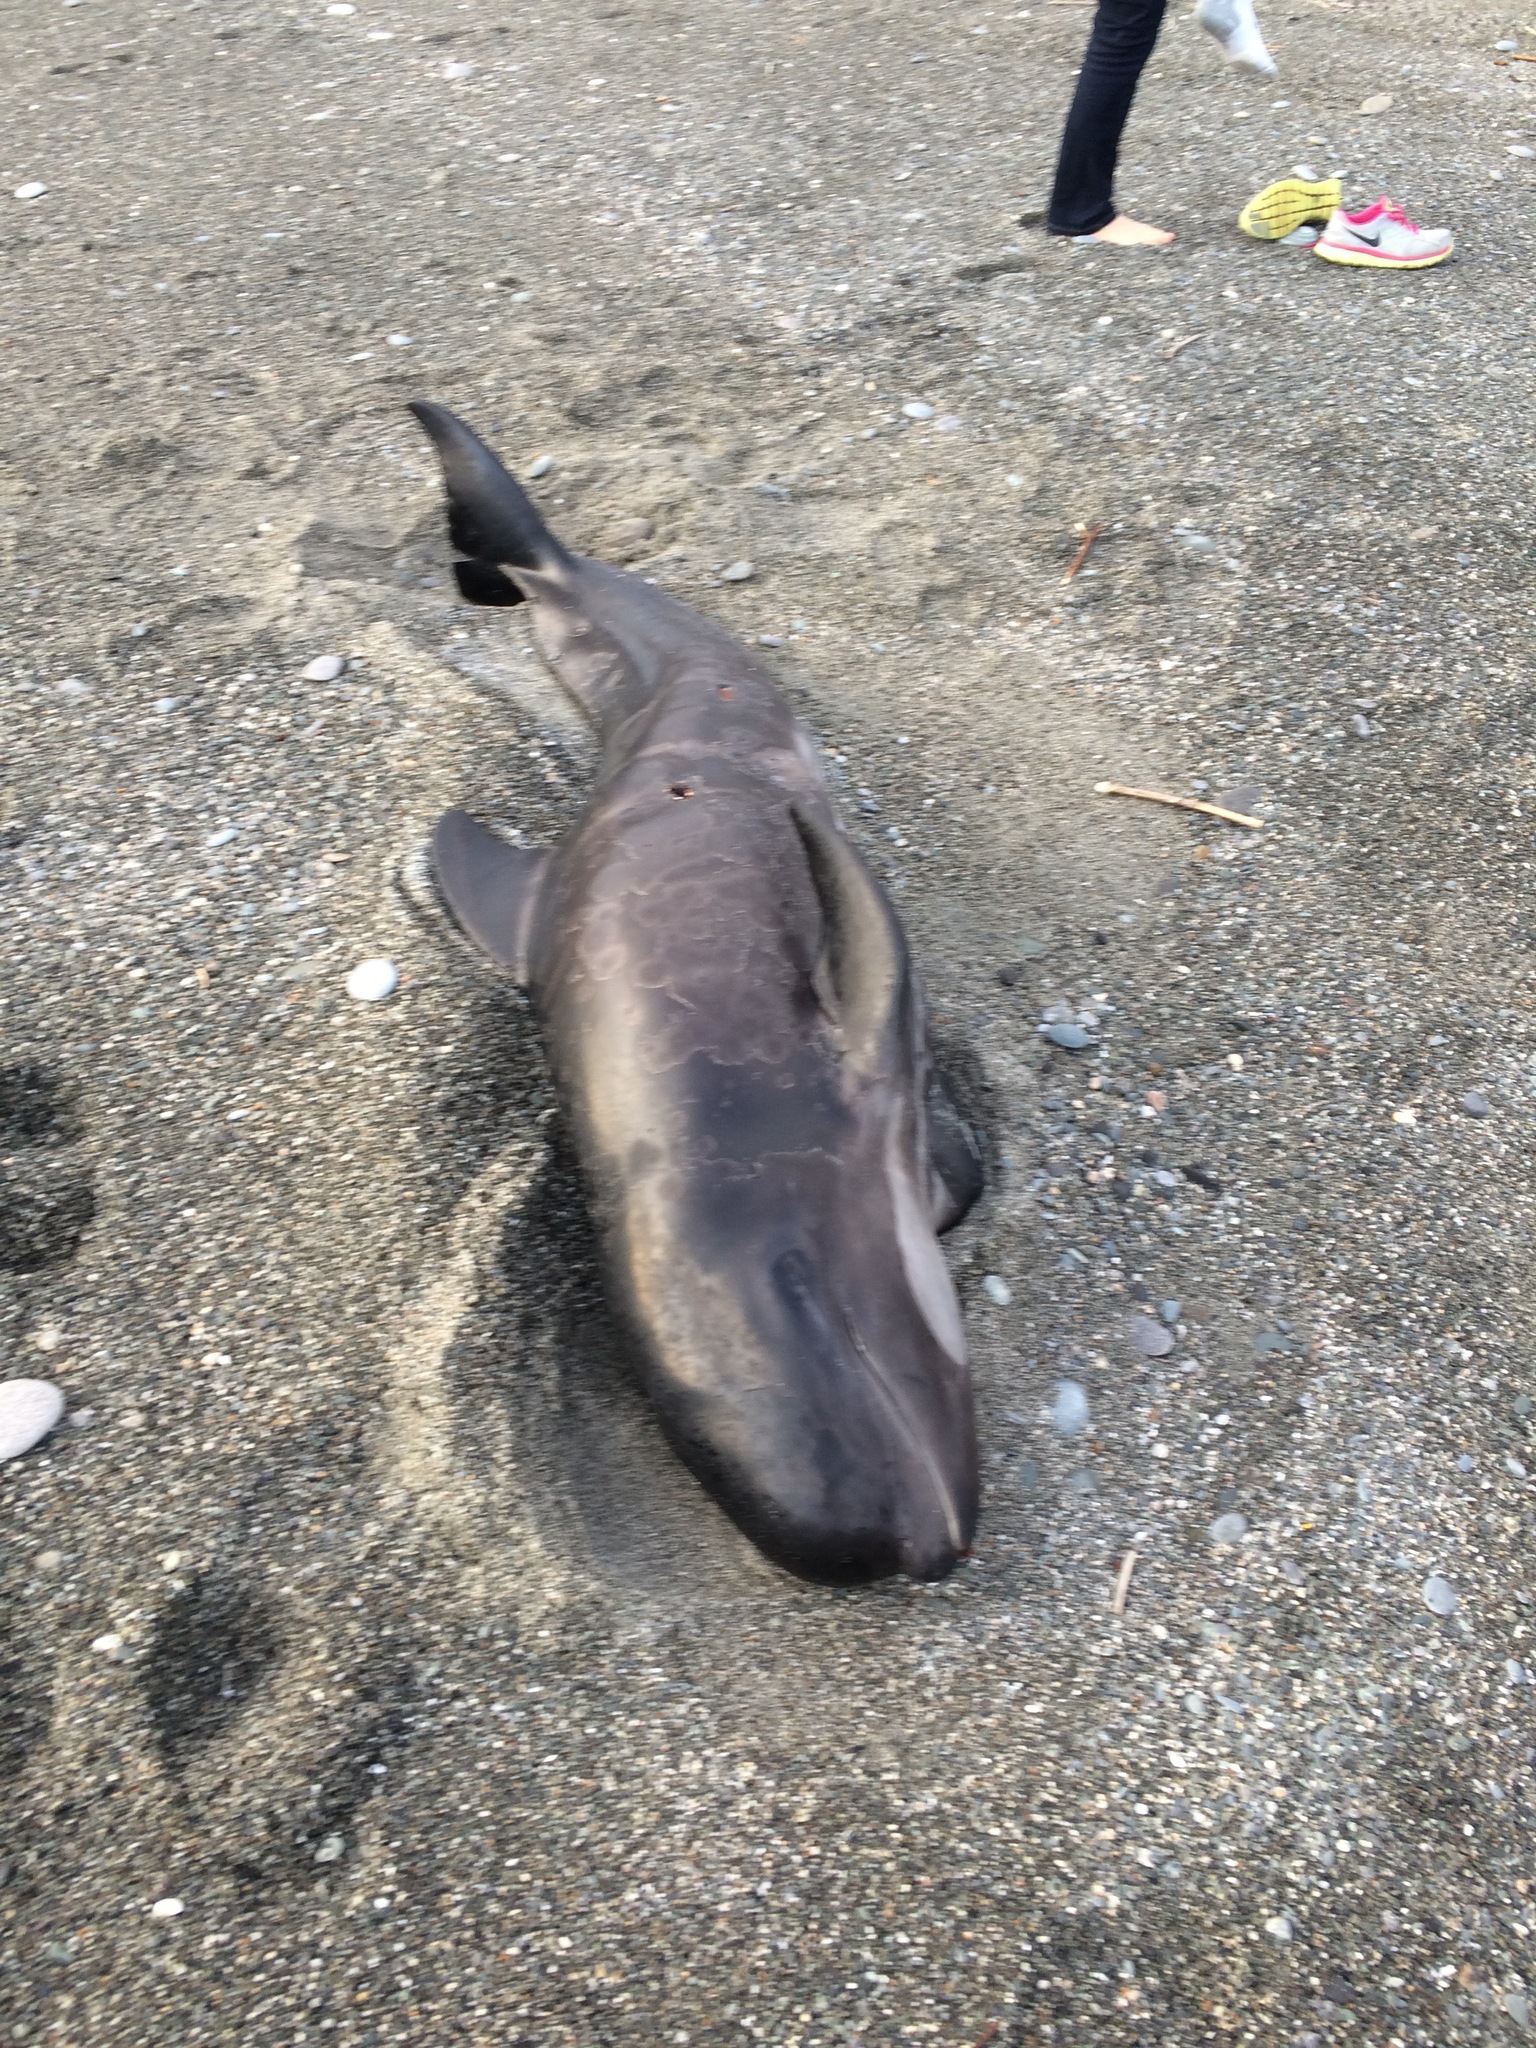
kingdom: Animalia
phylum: Chordata
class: Mammalia
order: Cetacea
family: Delphinidae
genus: Globicephala
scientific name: Globicephala melas
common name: Long-finned pilot whale
